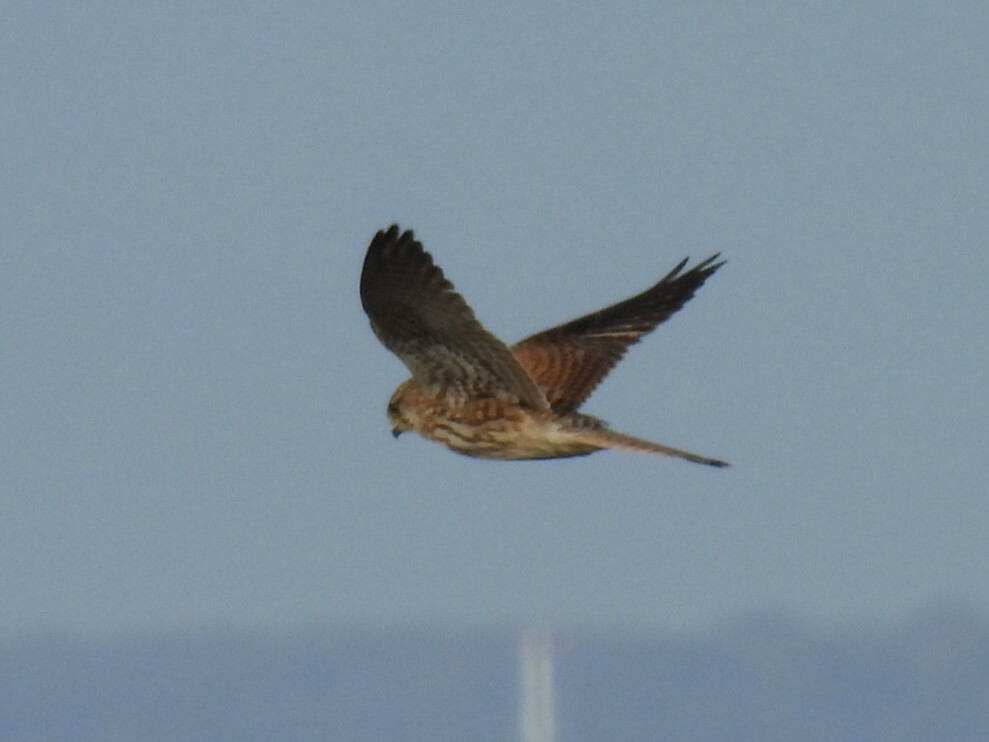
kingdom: Animalia
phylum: Chordata
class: Aves
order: Falconiformes
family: Falconidae
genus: Falco
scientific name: Falco tinnunculus
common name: Common kestrel
